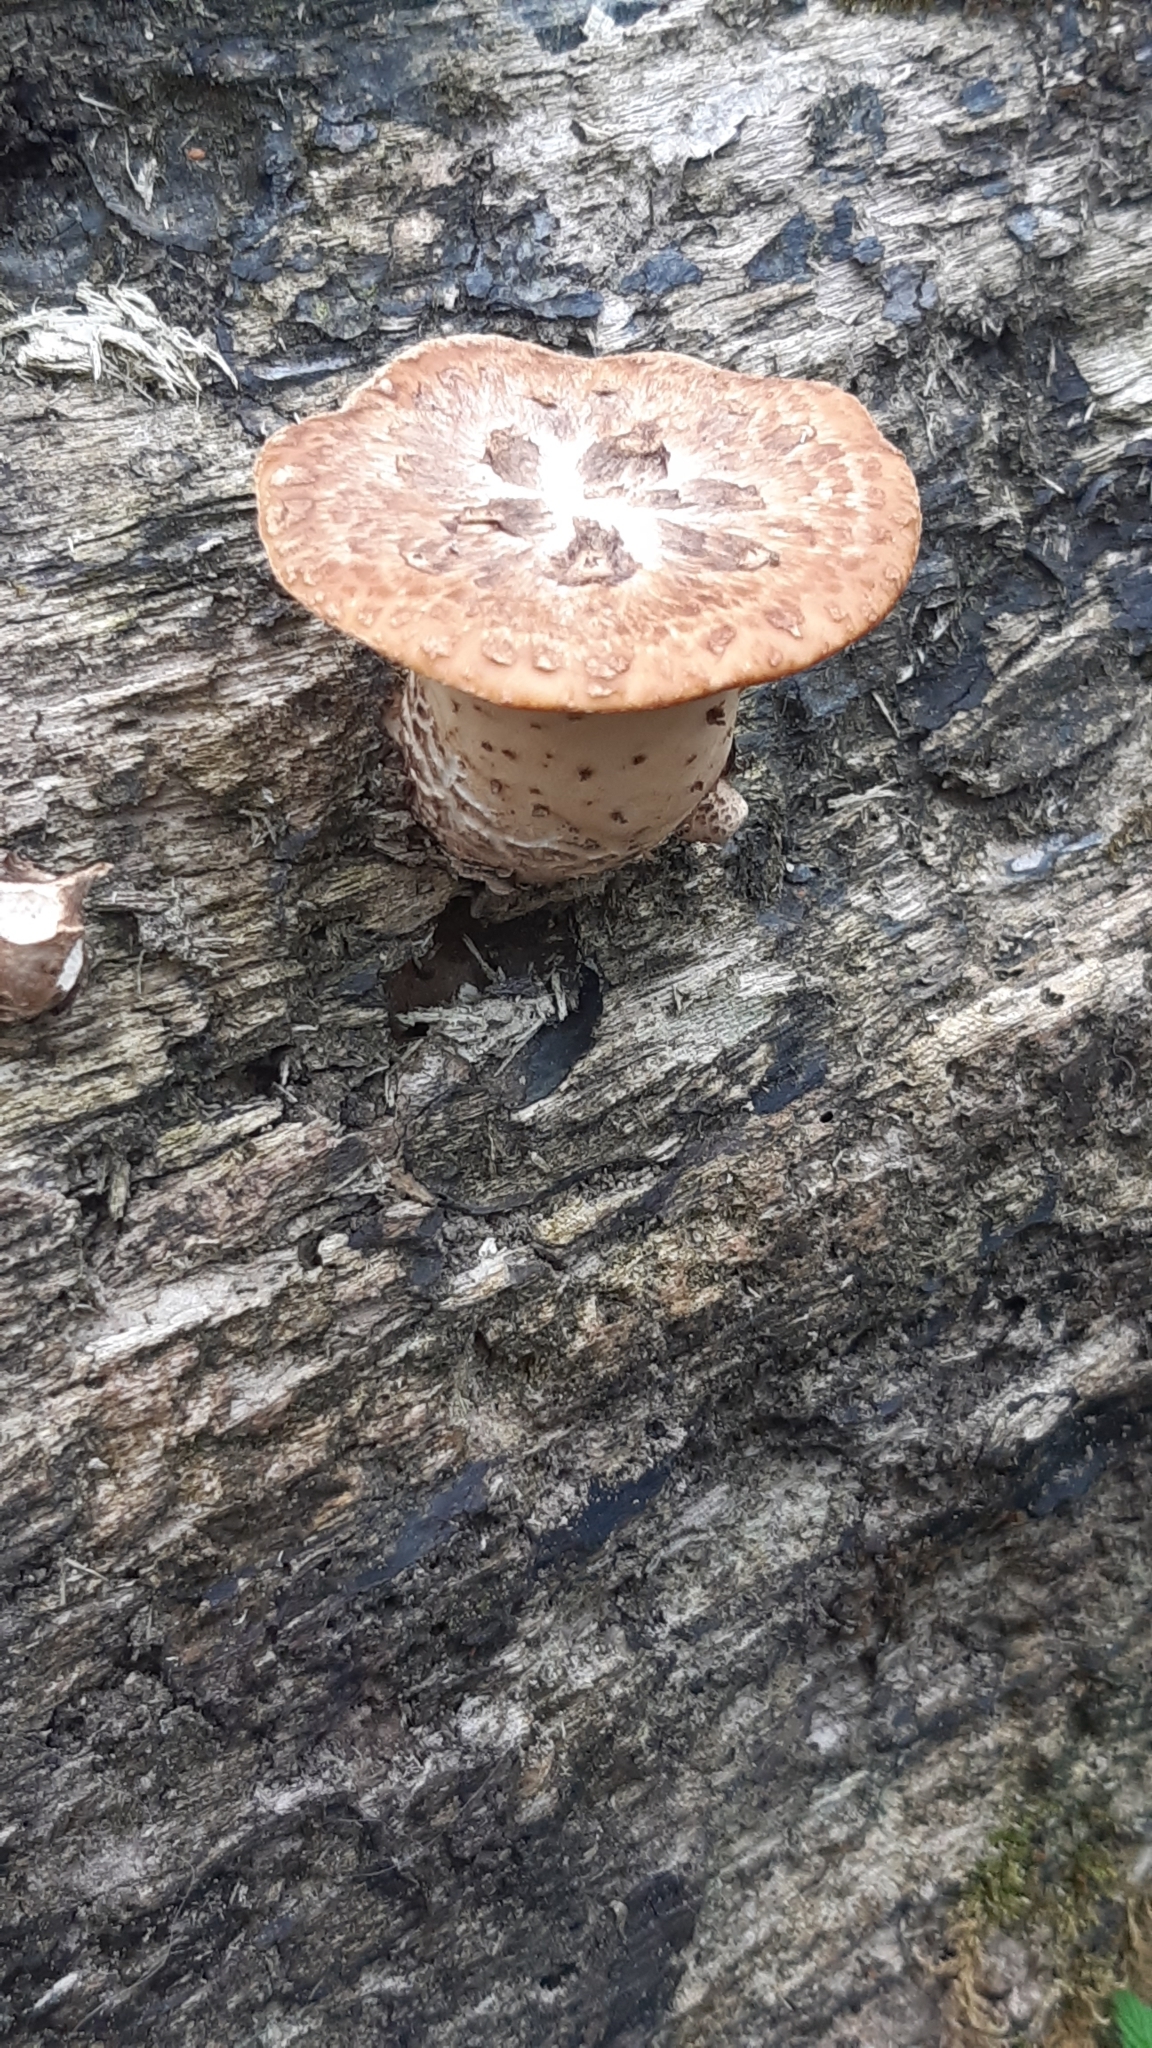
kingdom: Fungi
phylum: Basidiomycota
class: Agaricomycetes
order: Polyporales
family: Polyporaceae
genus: Cerioporus
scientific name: Cerioporus squamosus
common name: Dryad's saddle
